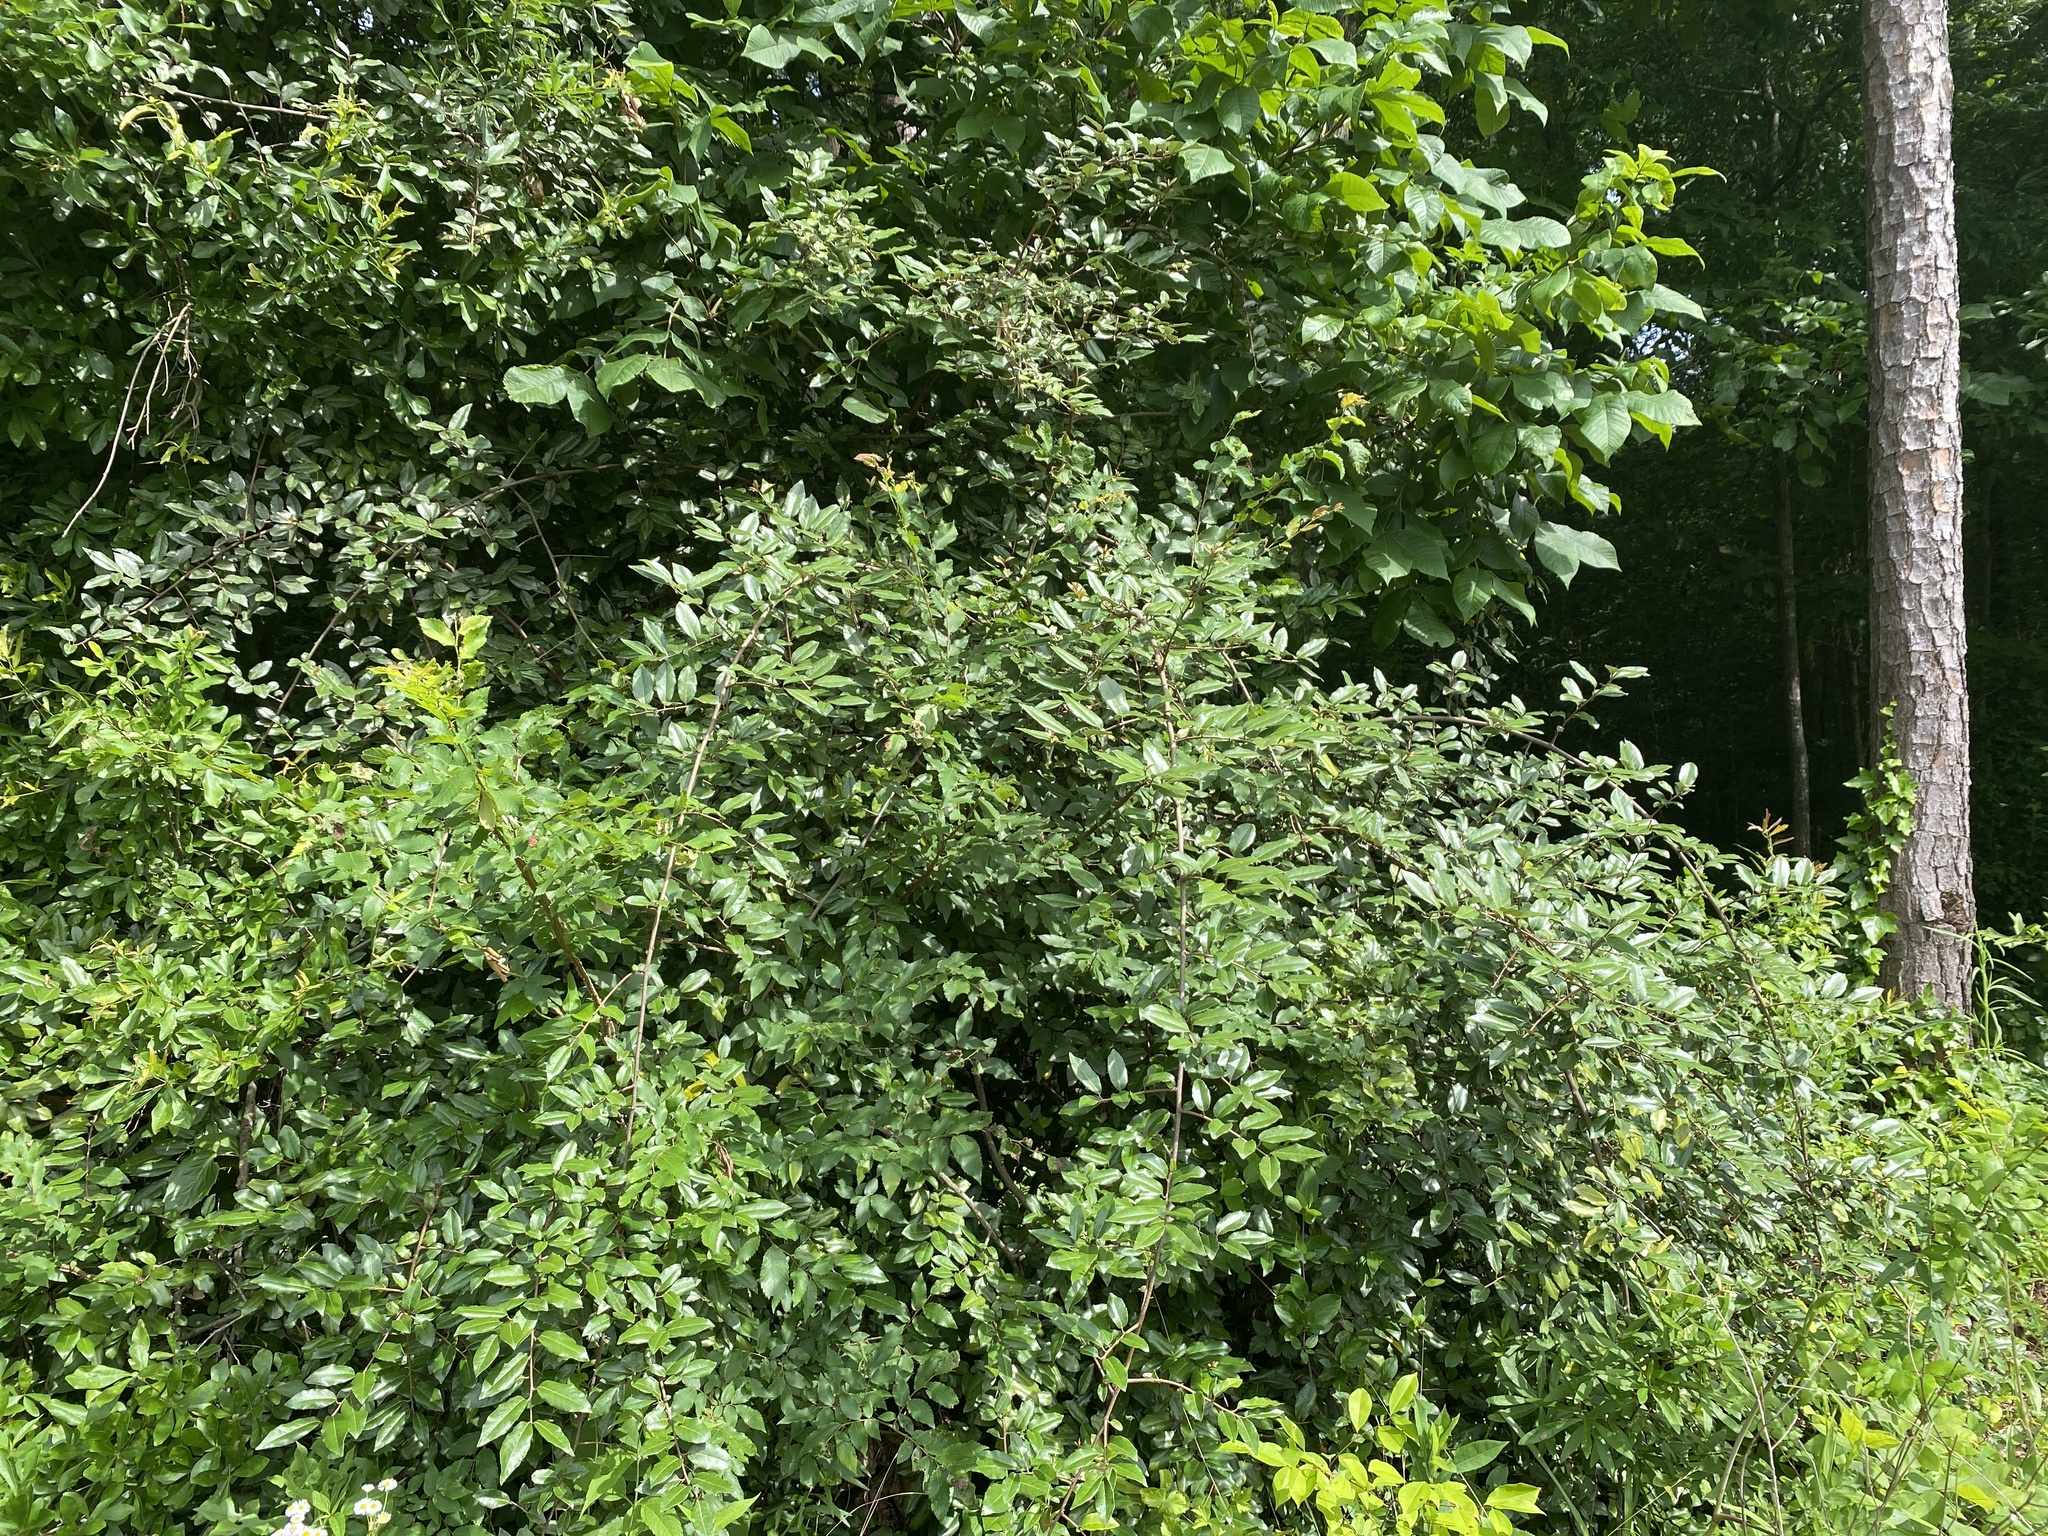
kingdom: Plantae
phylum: Tracheophyta
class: Magnoliopsida
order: Rosales
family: Elaeagnaceae
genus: Elaeagnus
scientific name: Elaeagnus pungens
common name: Spiny oleaster
